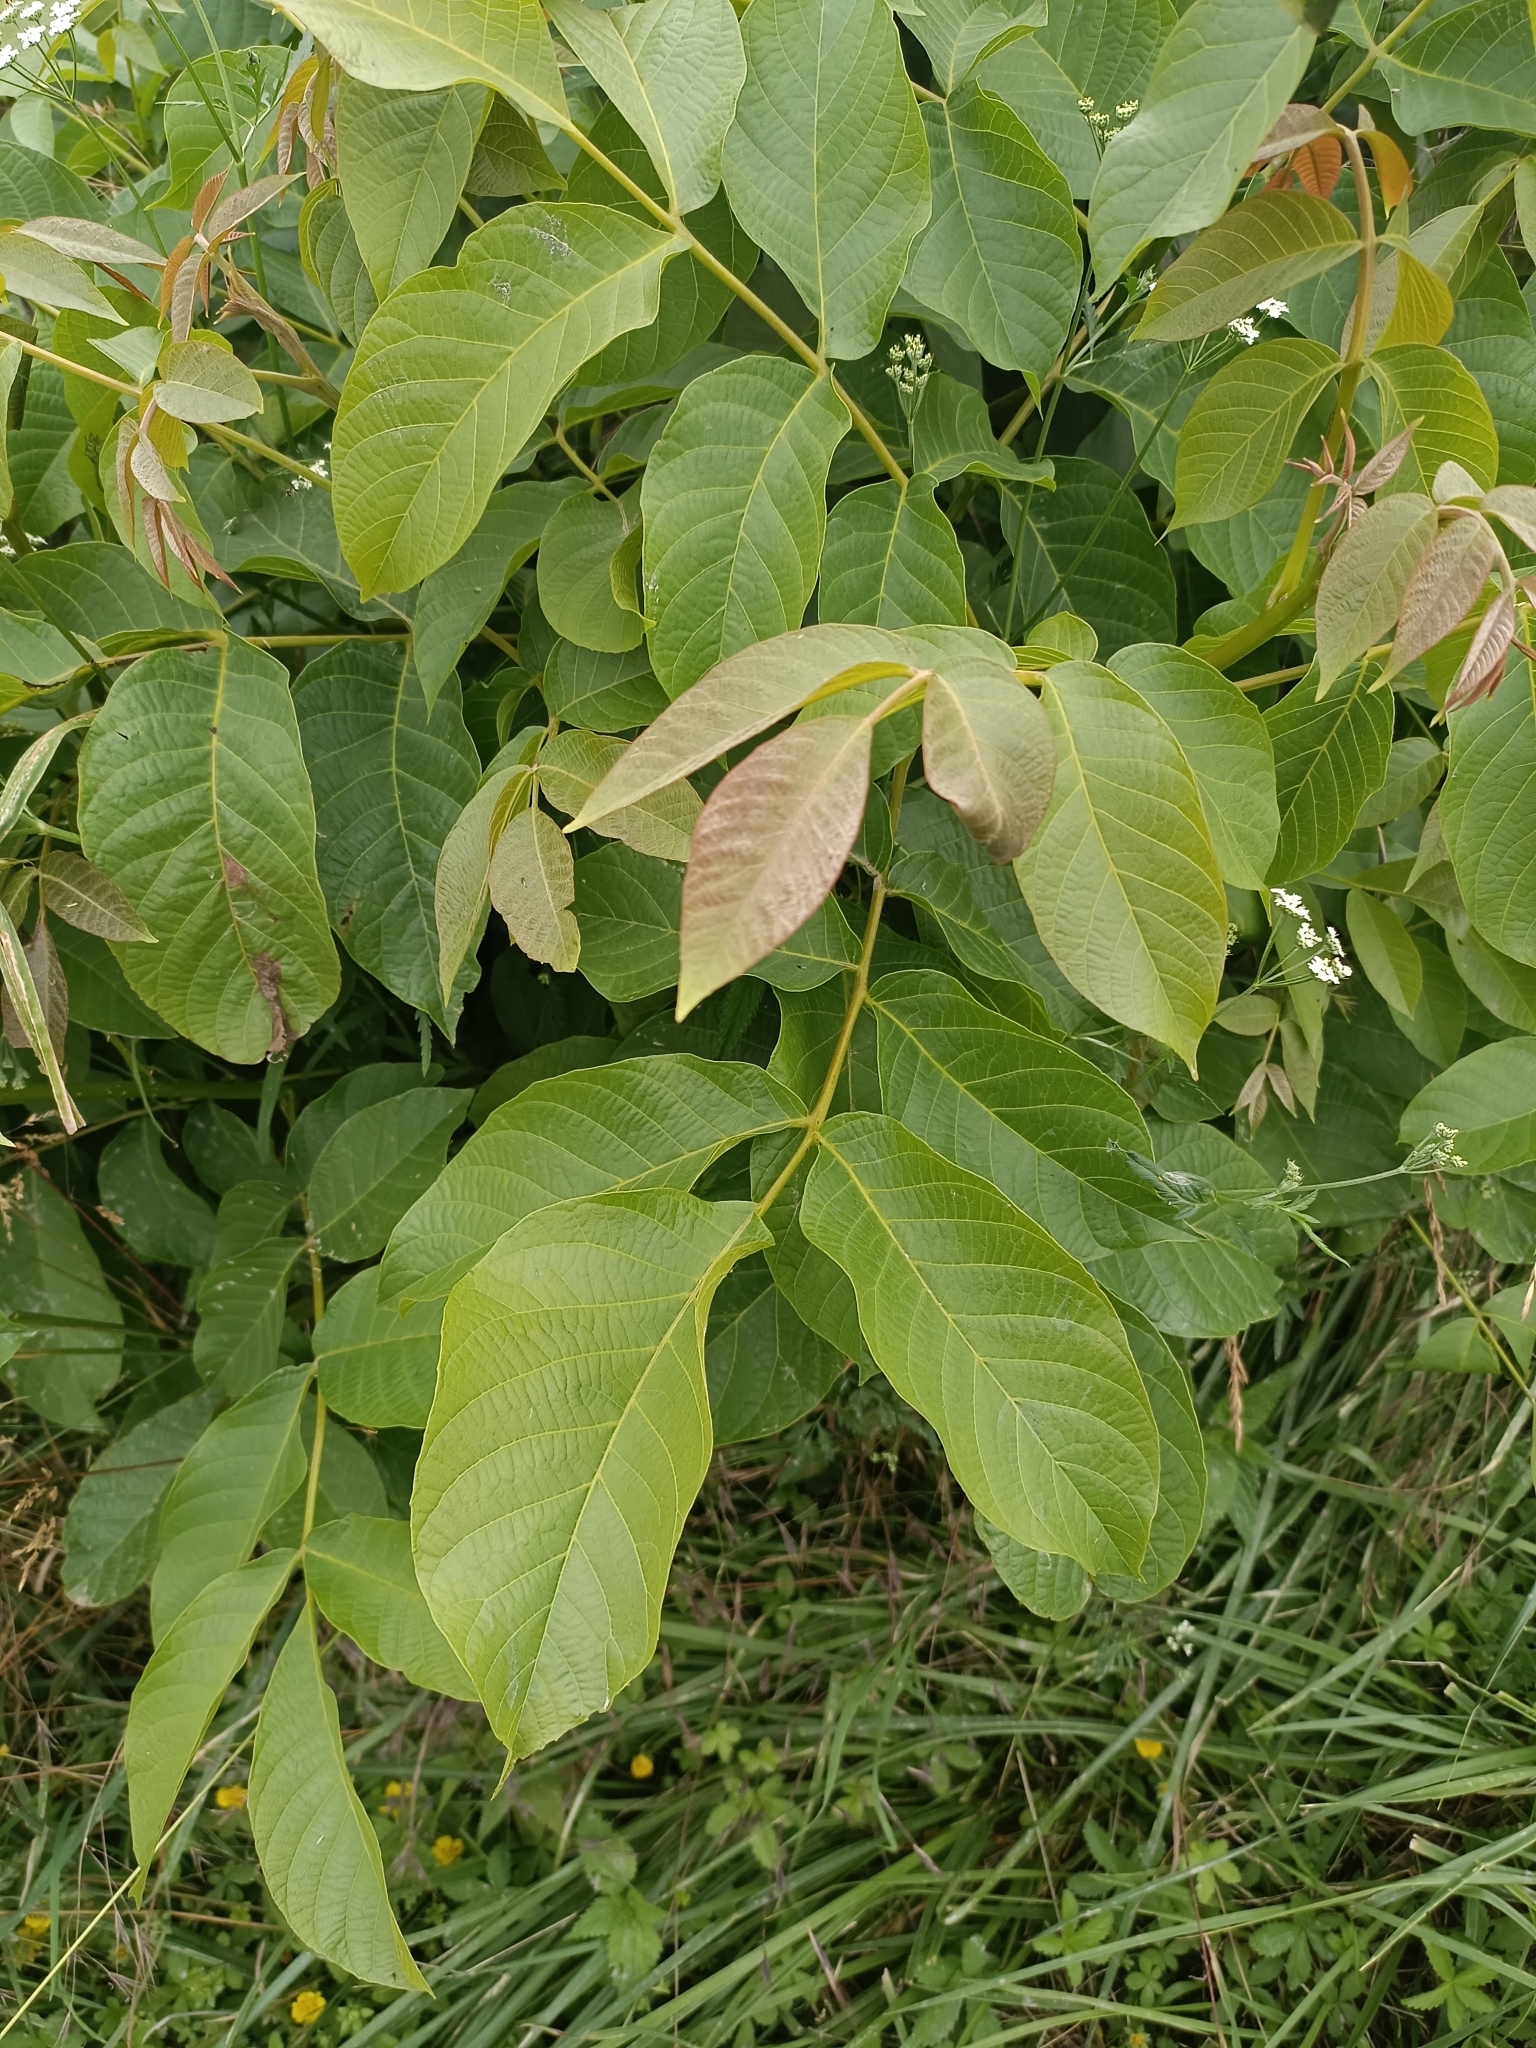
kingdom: Plantae
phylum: Tracheophyta
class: Magnoliopsida
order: Fagales
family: Juglandaceae
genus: Juglans
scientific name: Juglans regia
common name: Walnut
